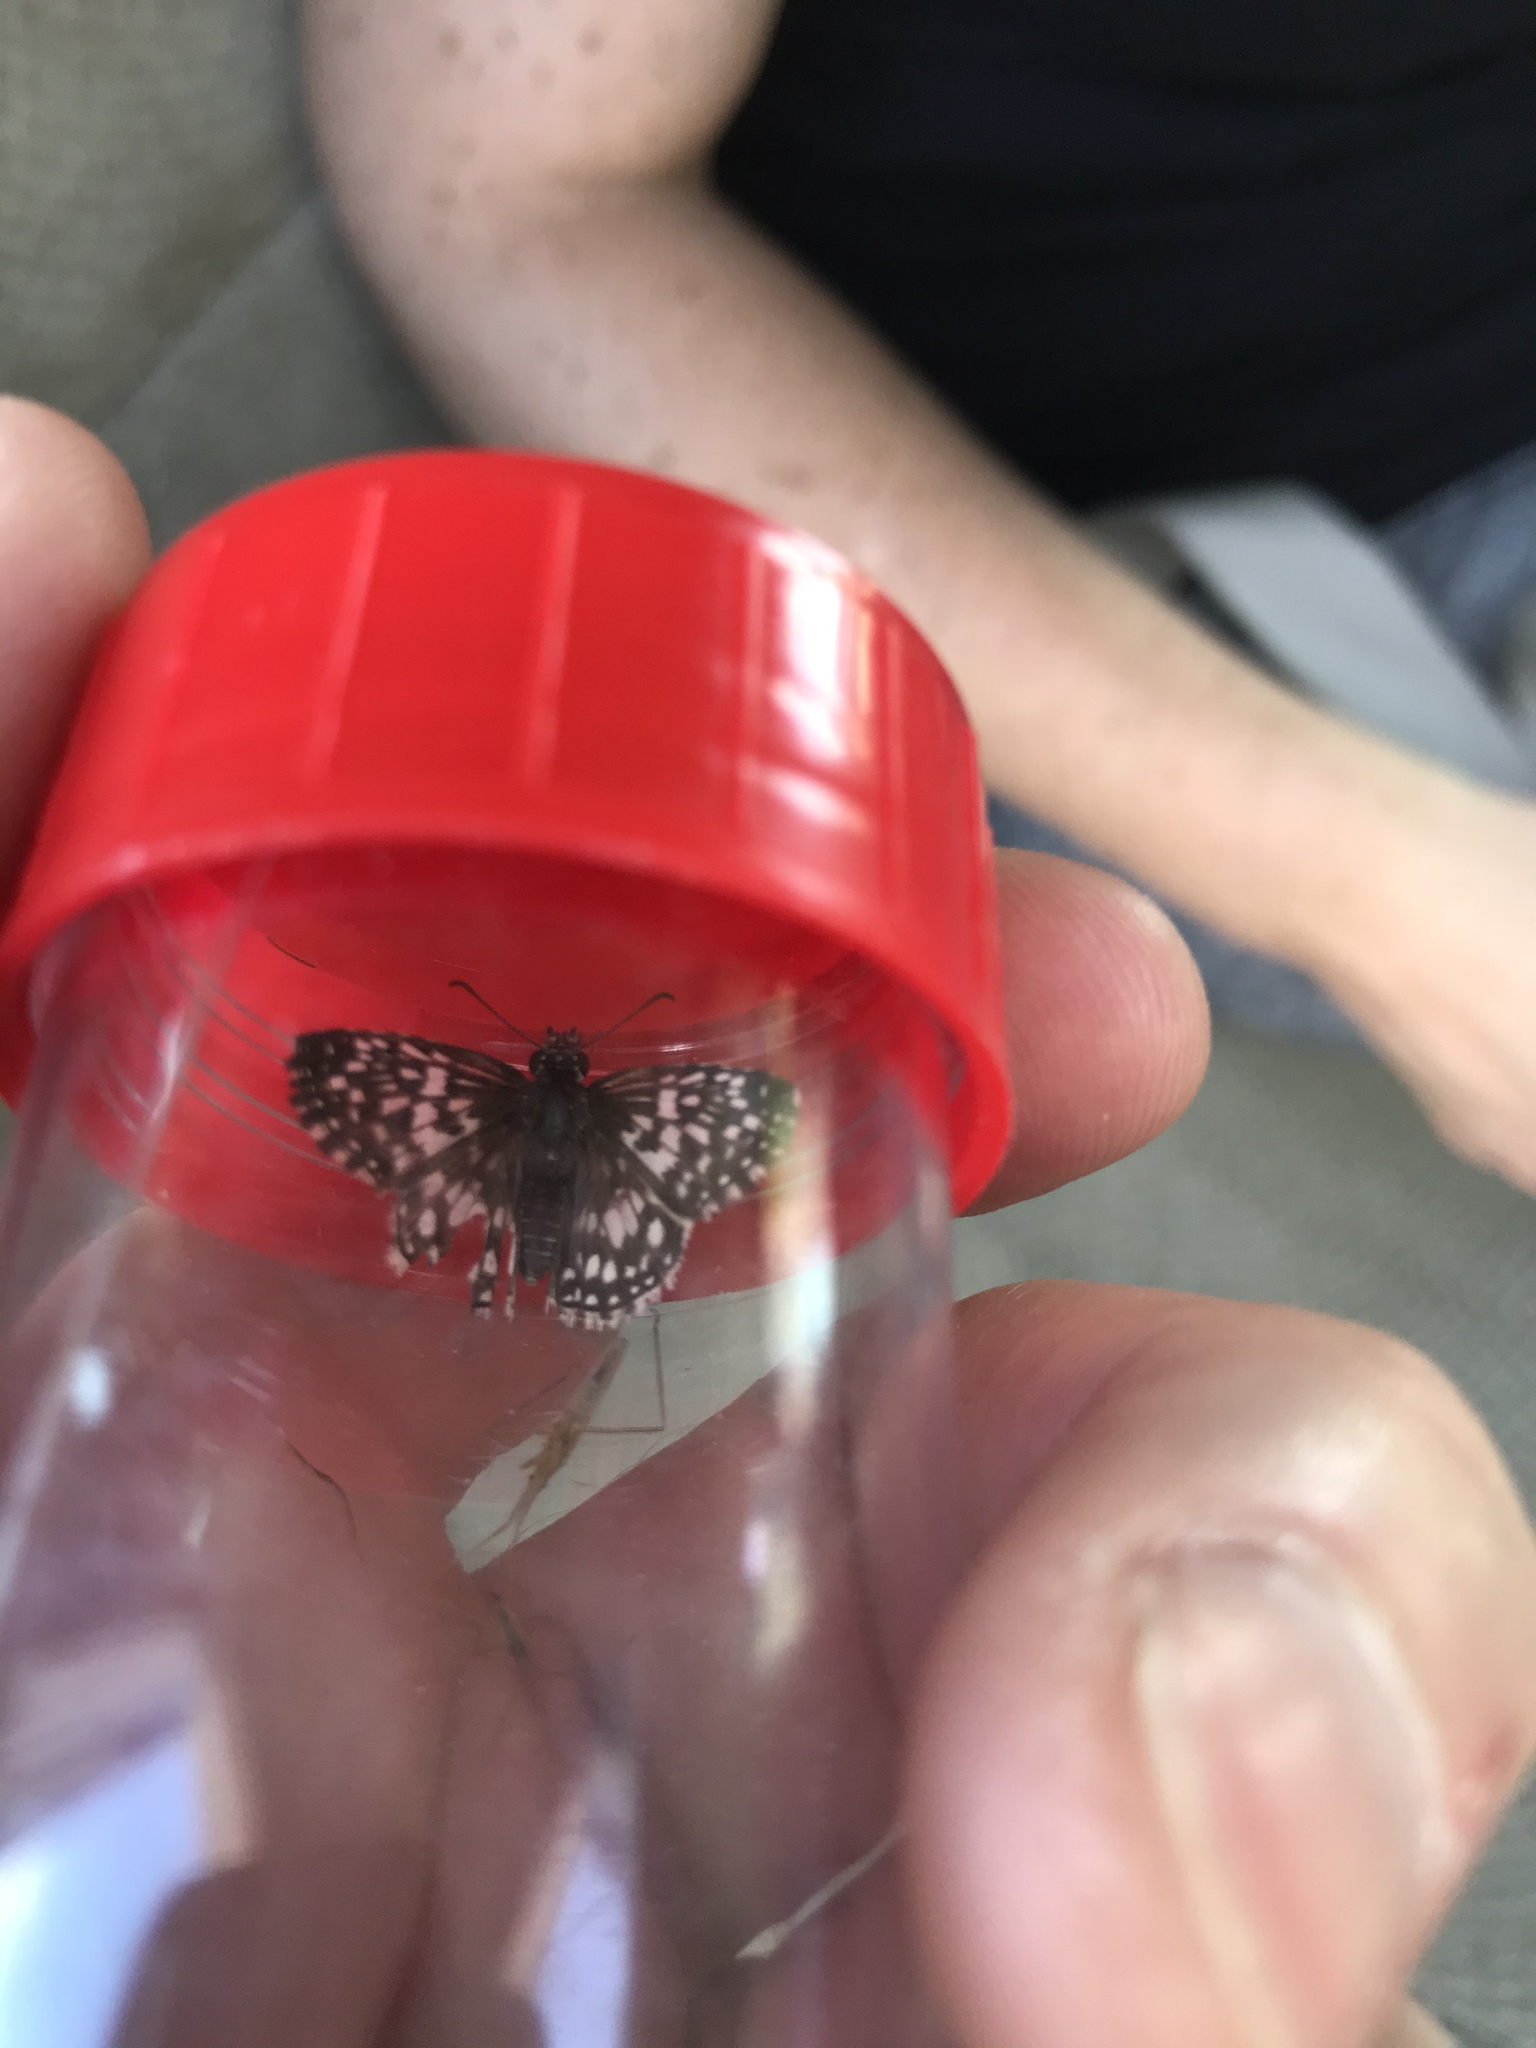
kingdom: Animalia
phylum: Arthropoda
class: Insecta
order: Lepidoptera
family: Hesperiidae
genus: Pyrgus
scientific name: Pyrgus oileus
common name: Tropical checkered-skipper
